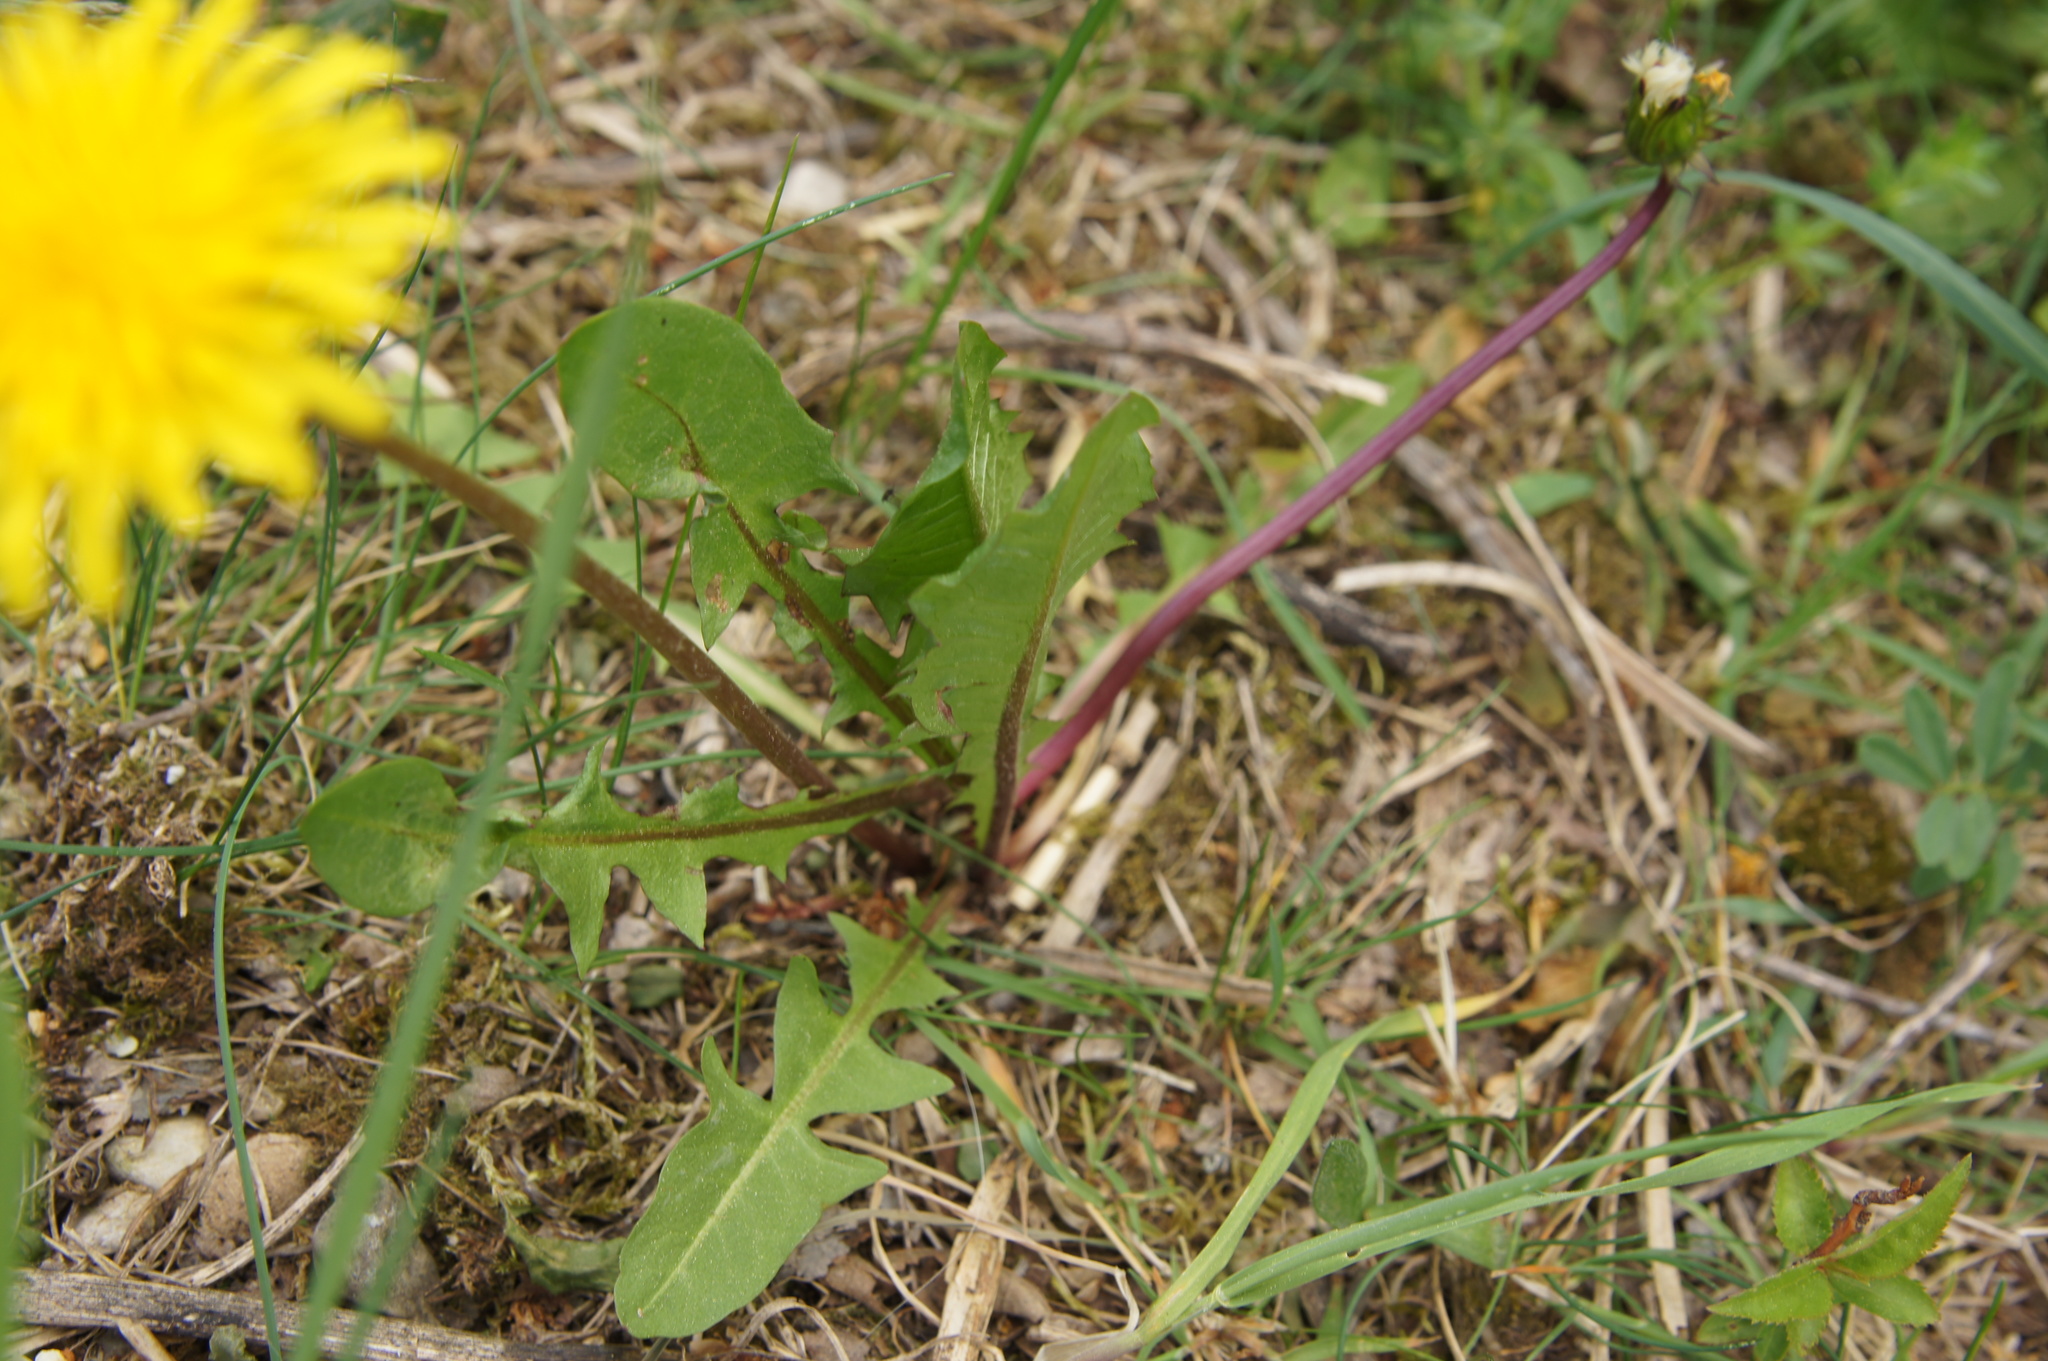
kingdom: Plantae
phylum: Tracheophyta
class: Magnoliopsida
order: Asterales
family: Asteraceae
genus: Taraxacum
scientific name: Taraxacum officinale
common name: Common dandelion
